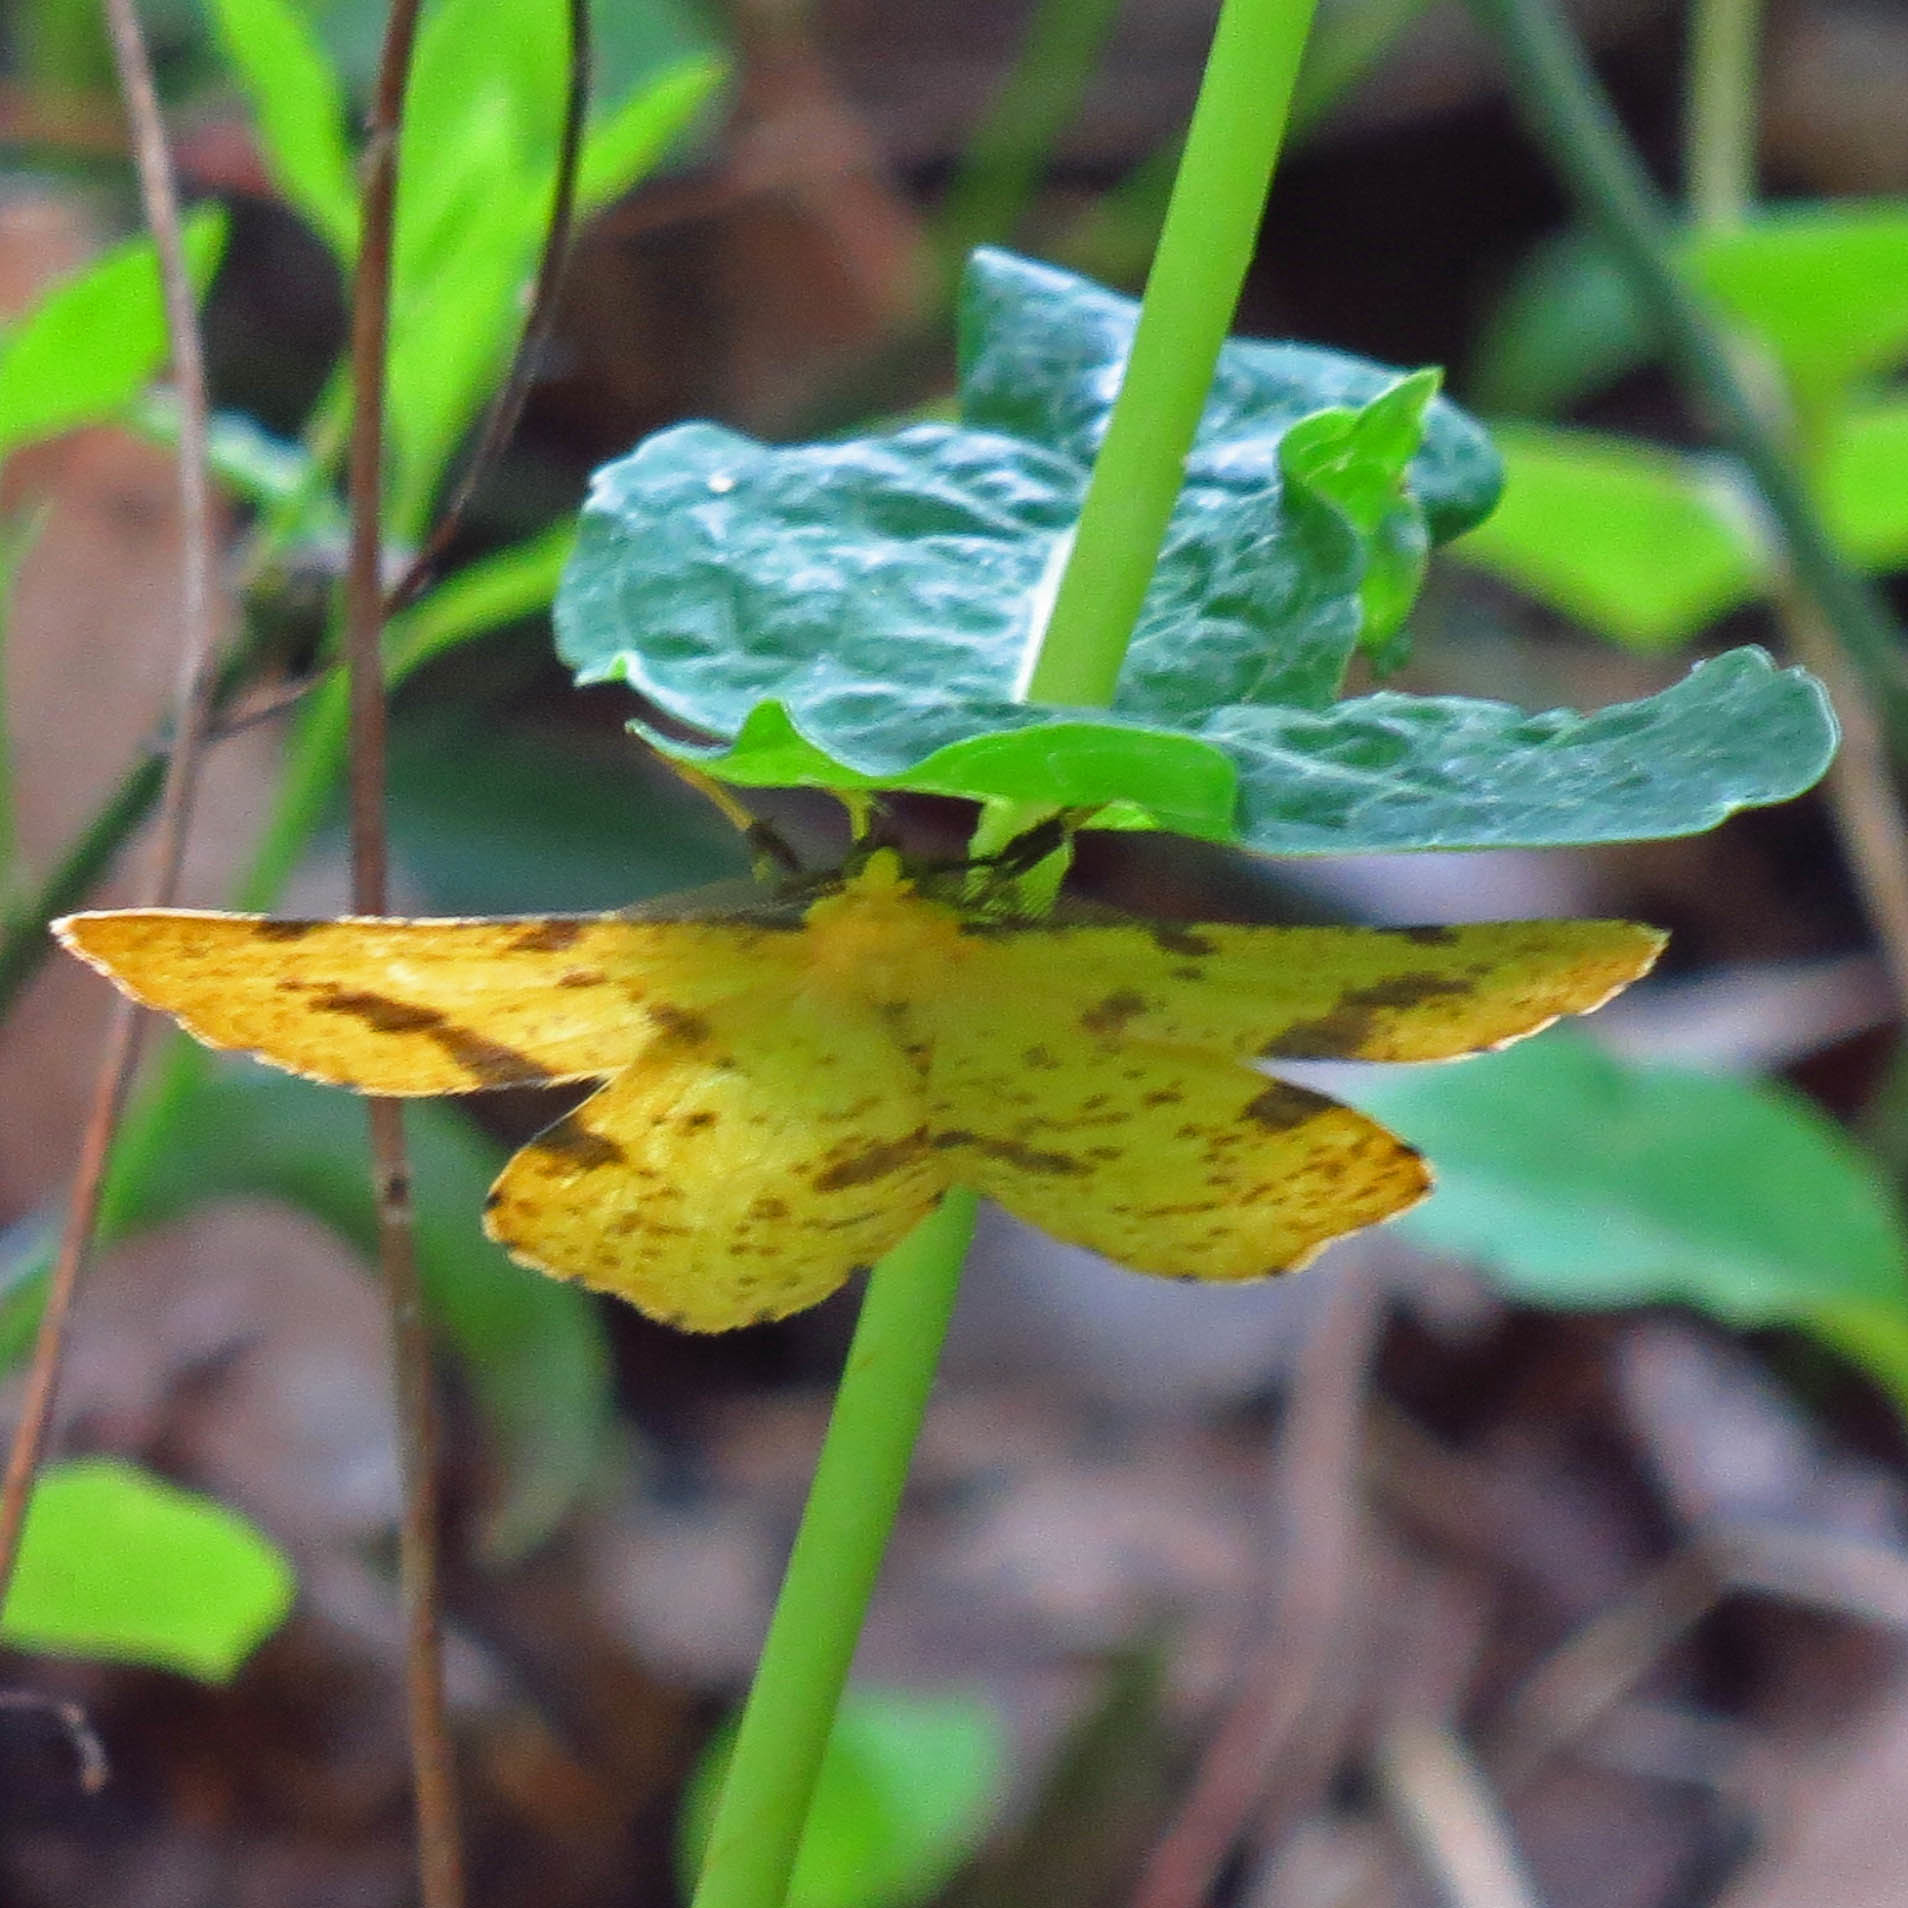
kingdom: Animalia
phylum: Arthropoda
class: Insecta
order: Lepidoptera
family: Geometridae
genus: Xanthotype
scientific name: Xanthotype
